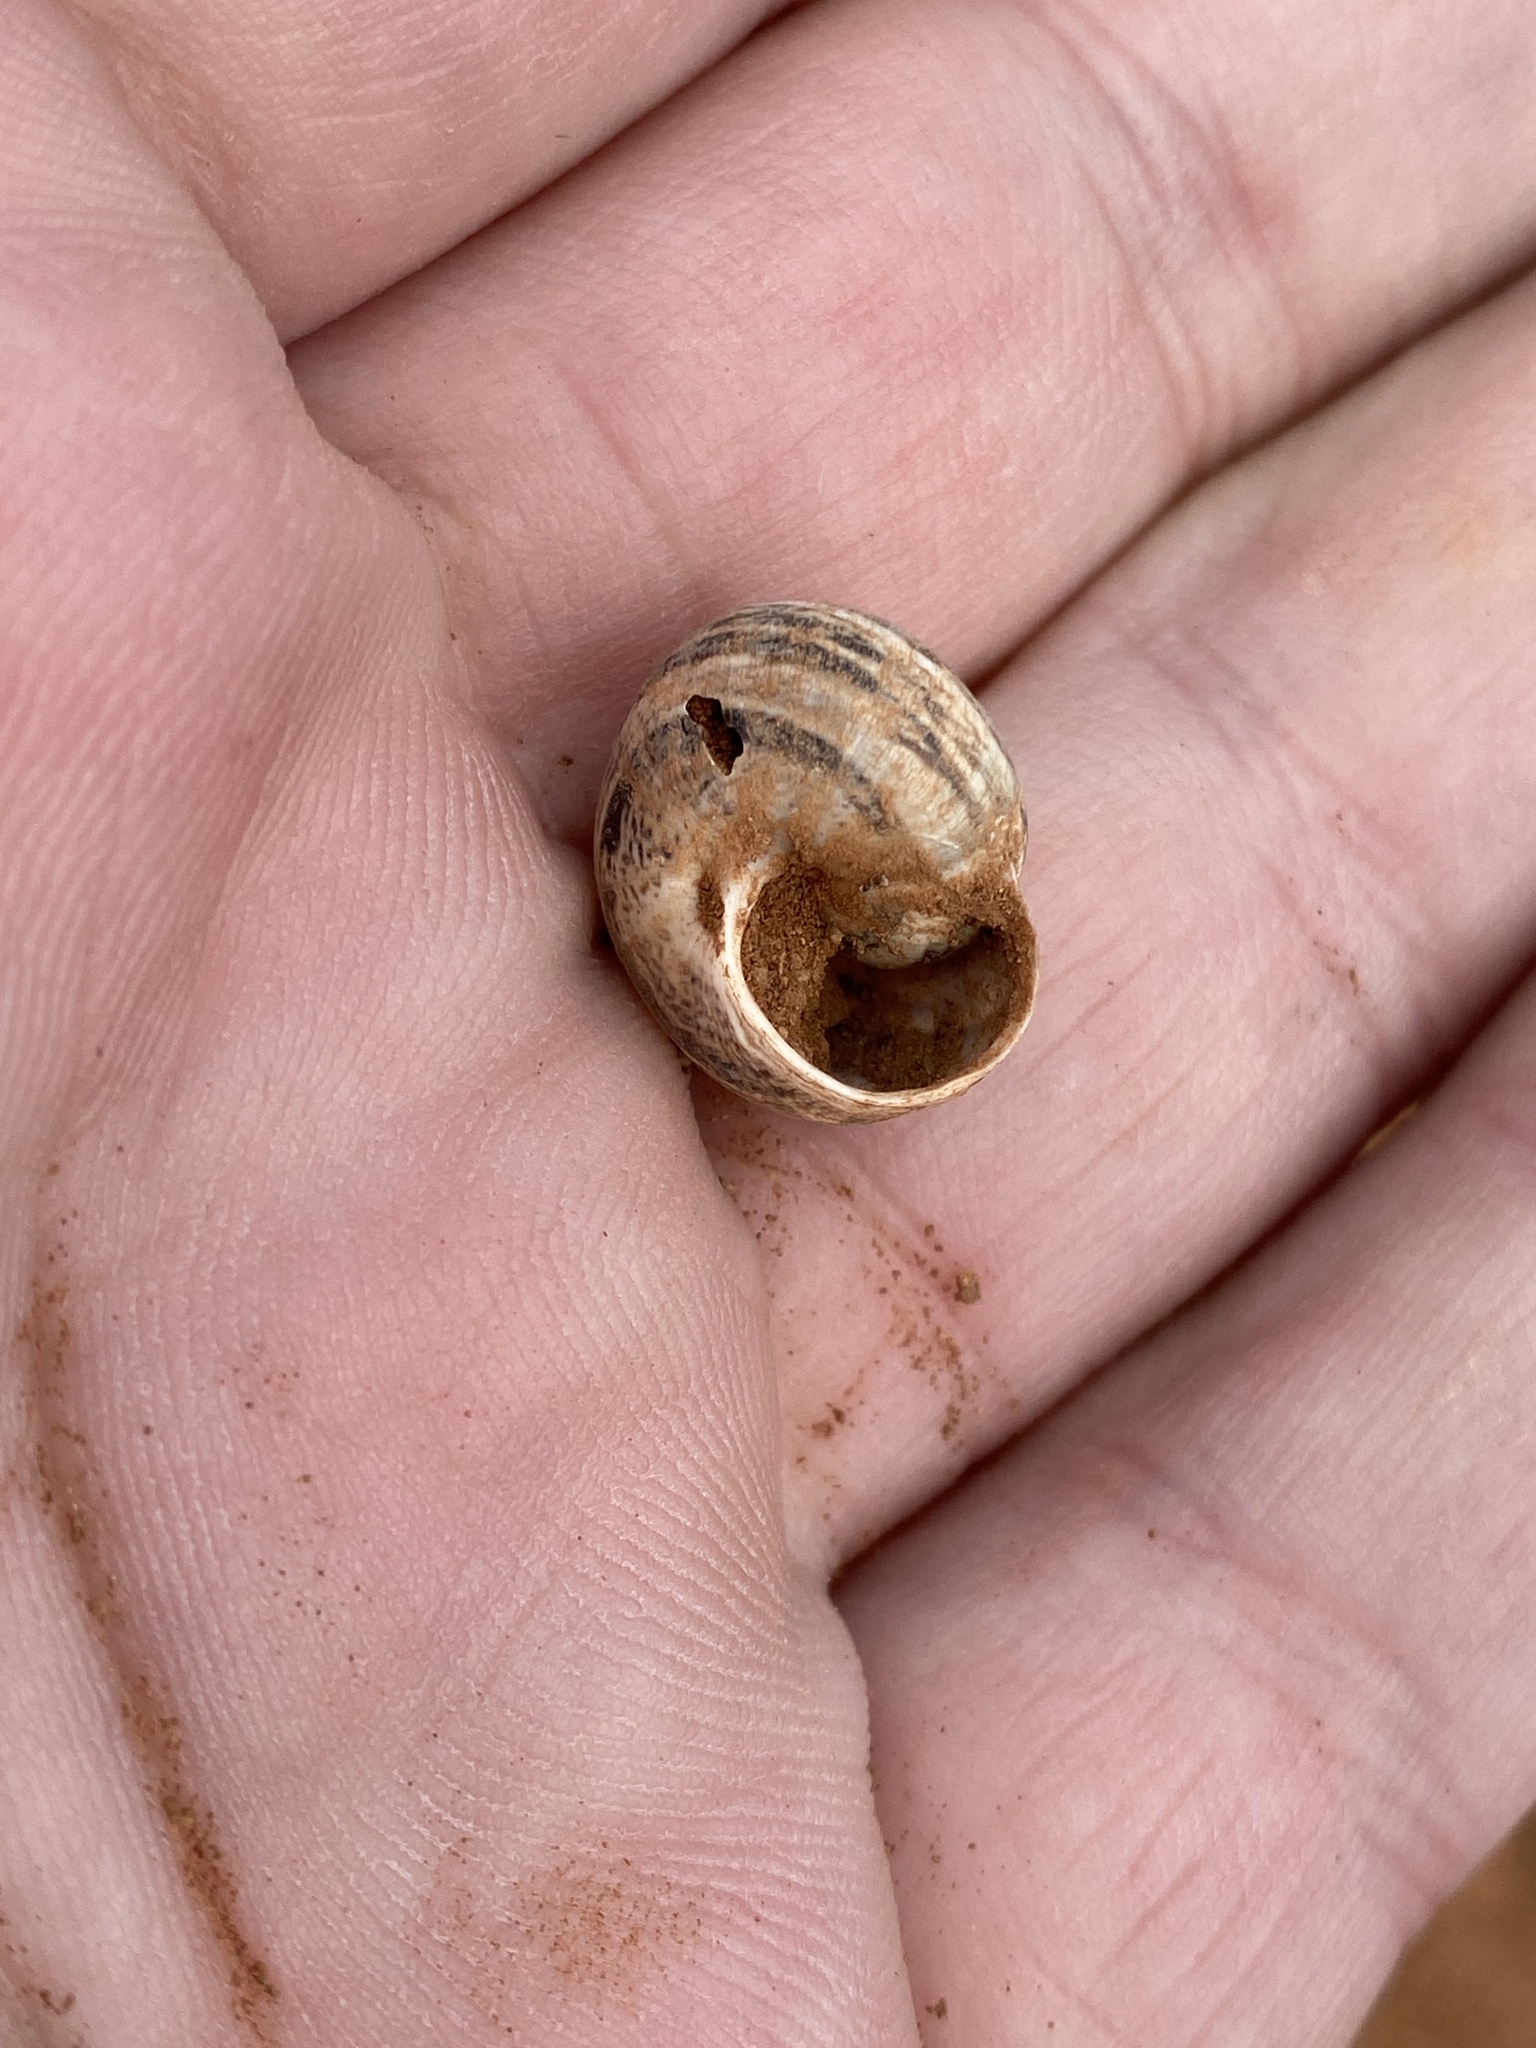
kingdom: Animalia
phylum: Mollusca
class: Gastropoda
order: Stylommatophora
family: Helicidae
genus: Theba
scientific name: Theba geminata
